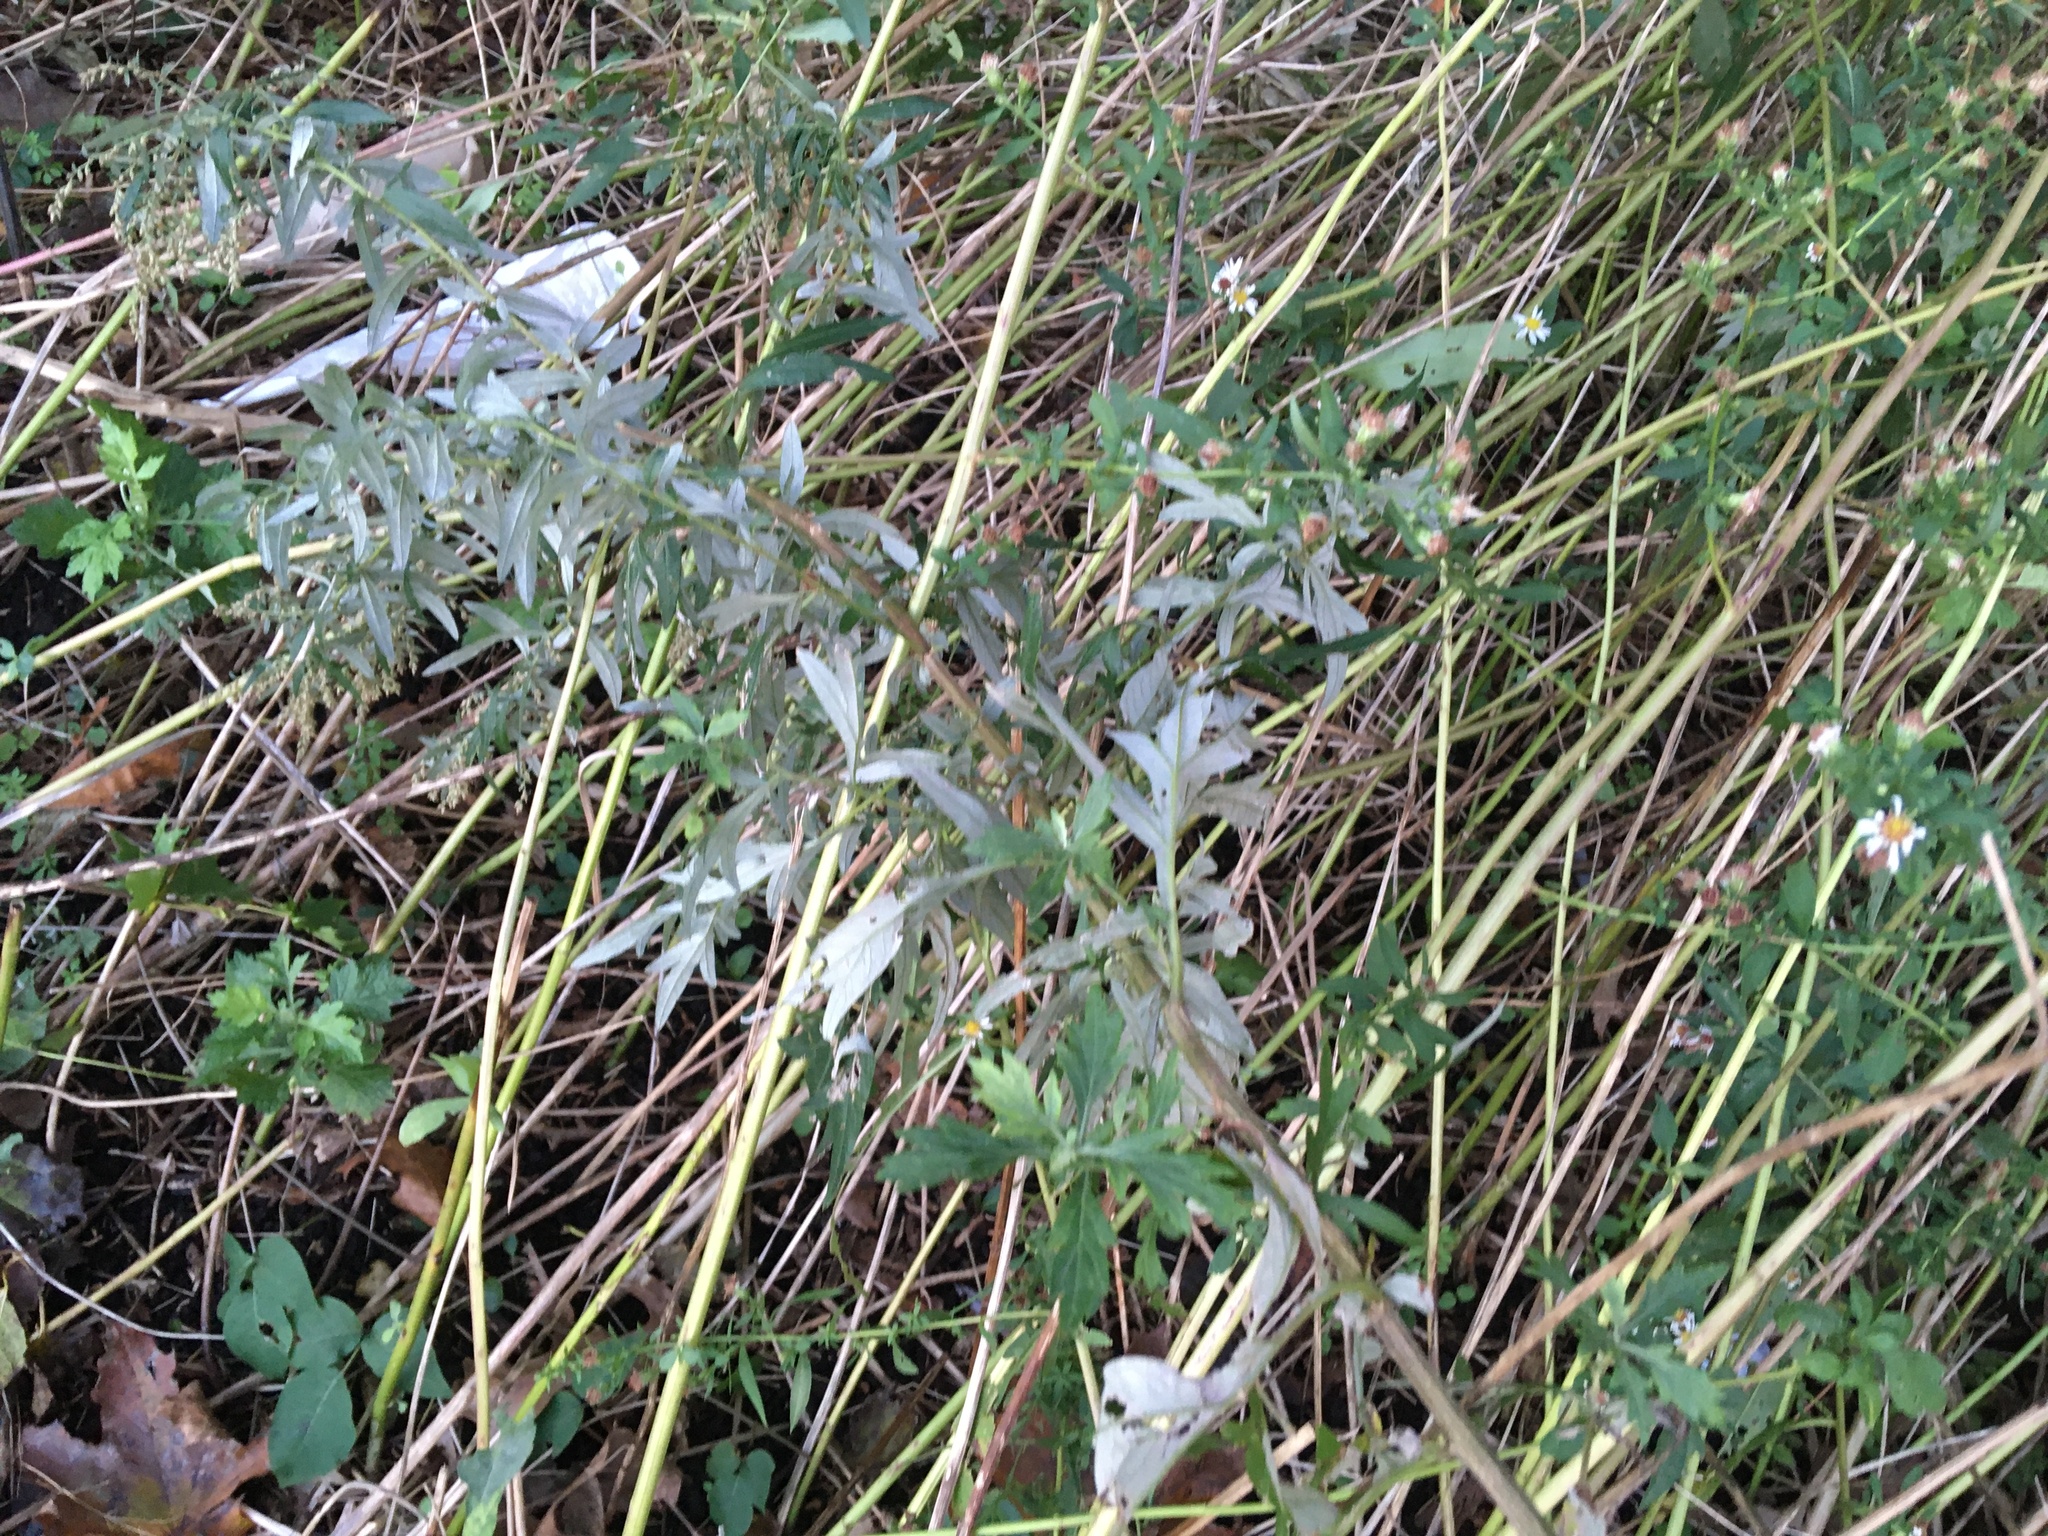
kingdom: Plantae
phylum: Tracheophyta
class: Magnoliopsida
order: Asterales
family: Asteraceae
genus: Artemisia
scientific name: Artemisia vulgaris
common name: Mugwort
